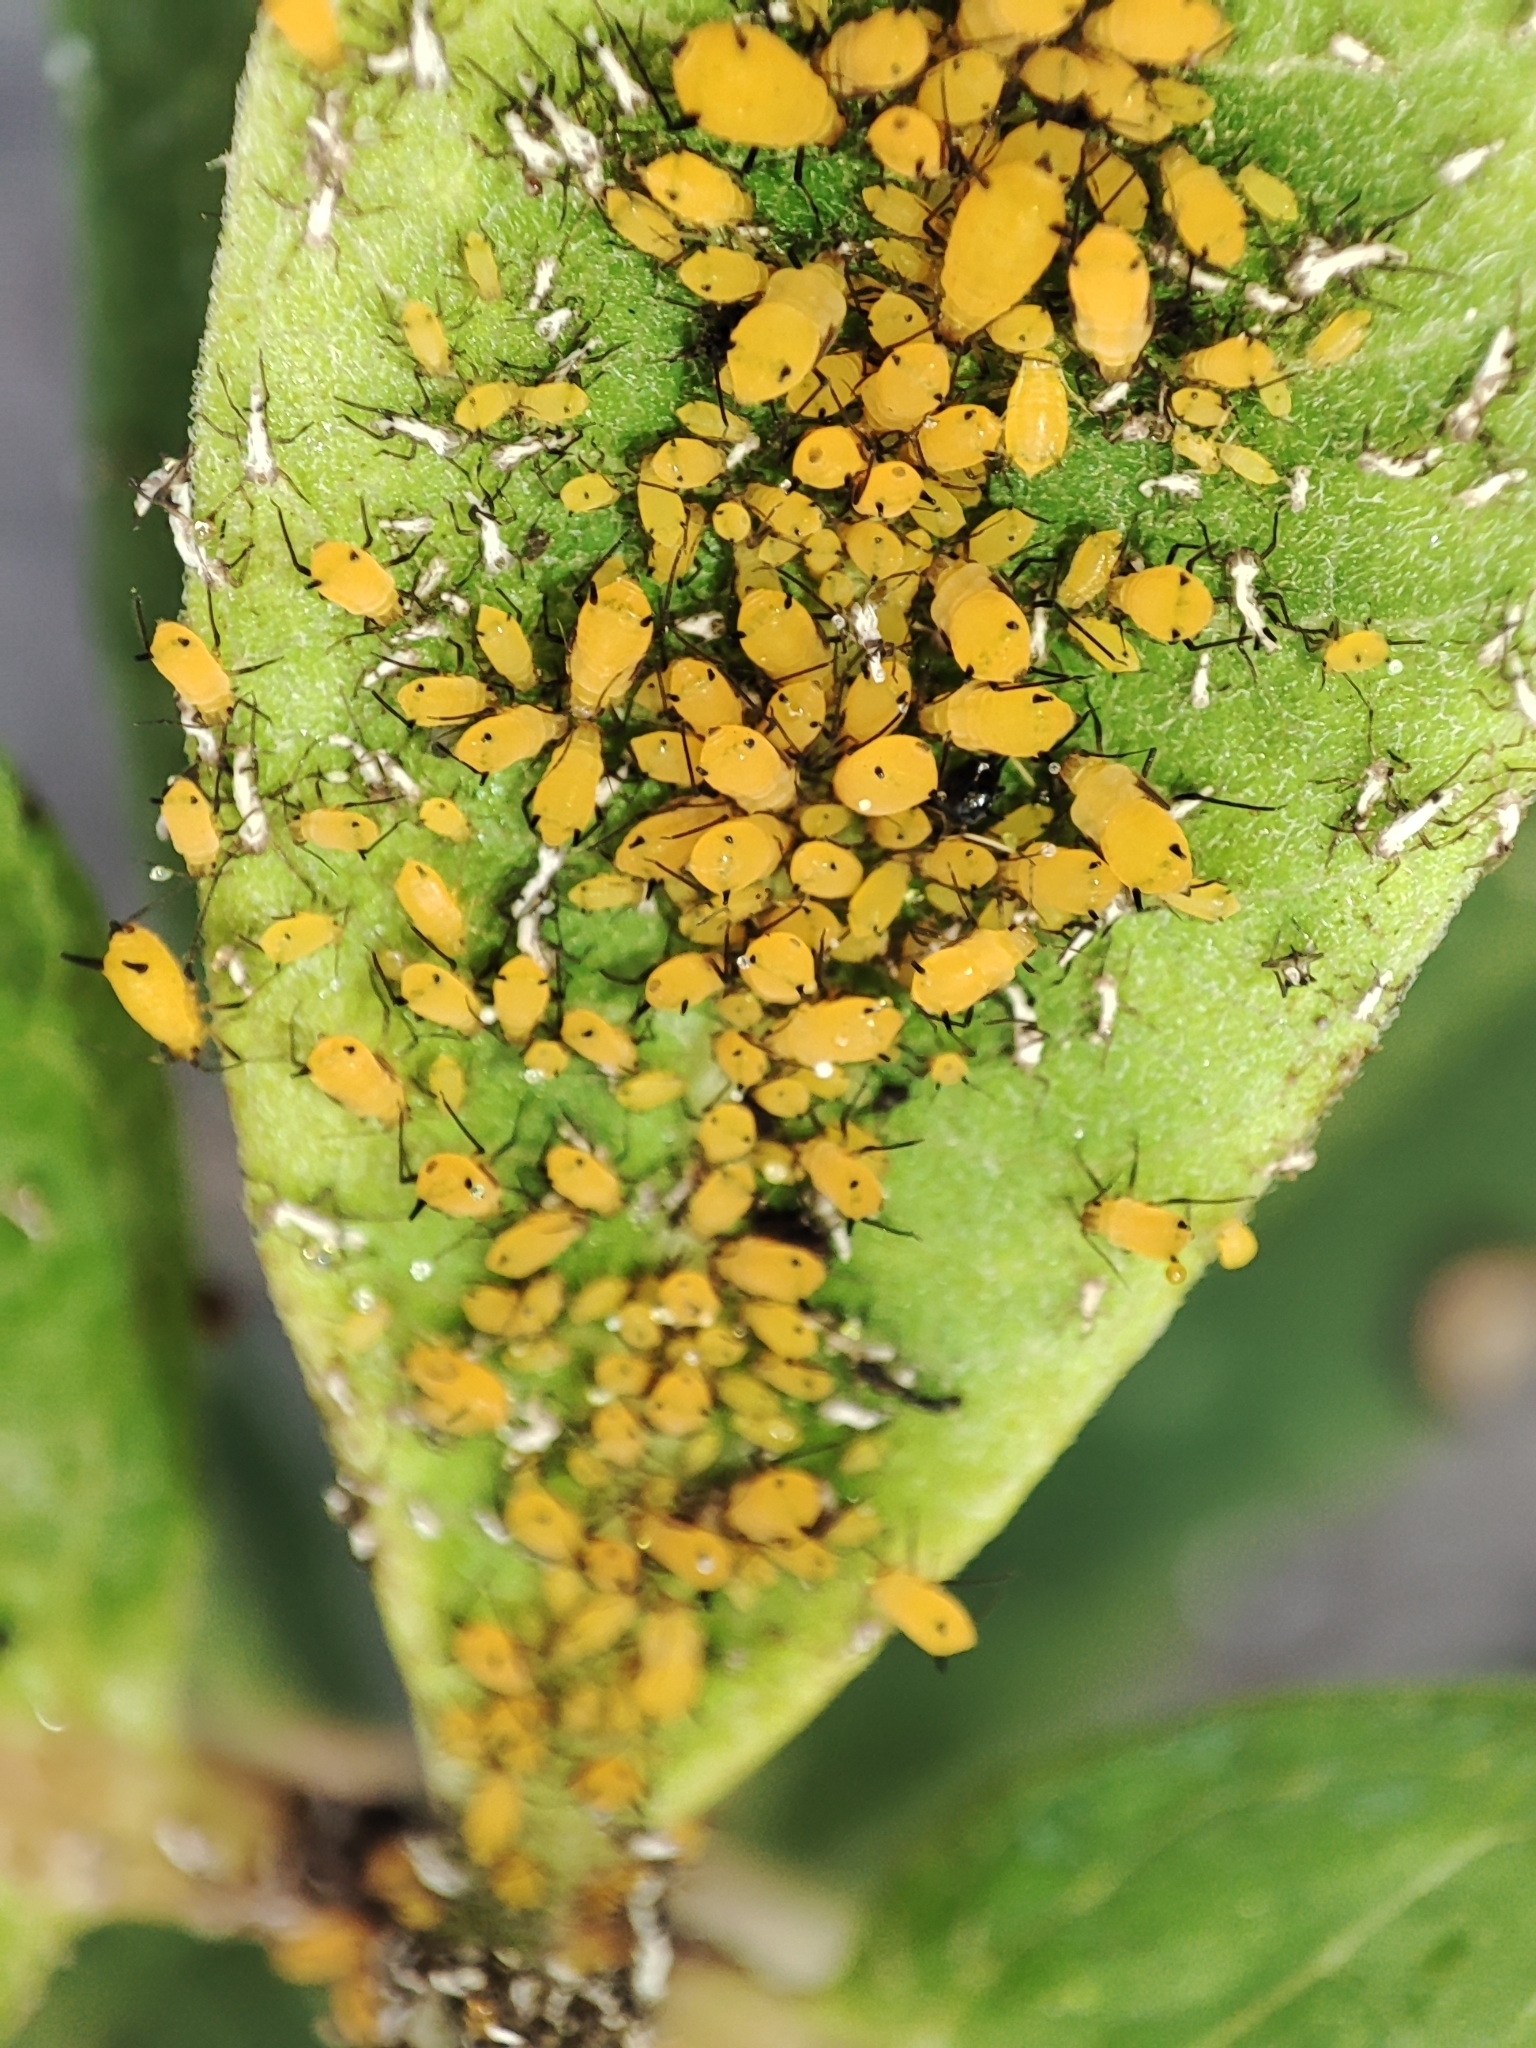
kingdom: Animalia
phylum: Arthropoda
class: Insecta
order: Hemiptera
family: Aphididae
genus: Aphis
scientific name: Aphis nerii
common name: Oleander aphid
